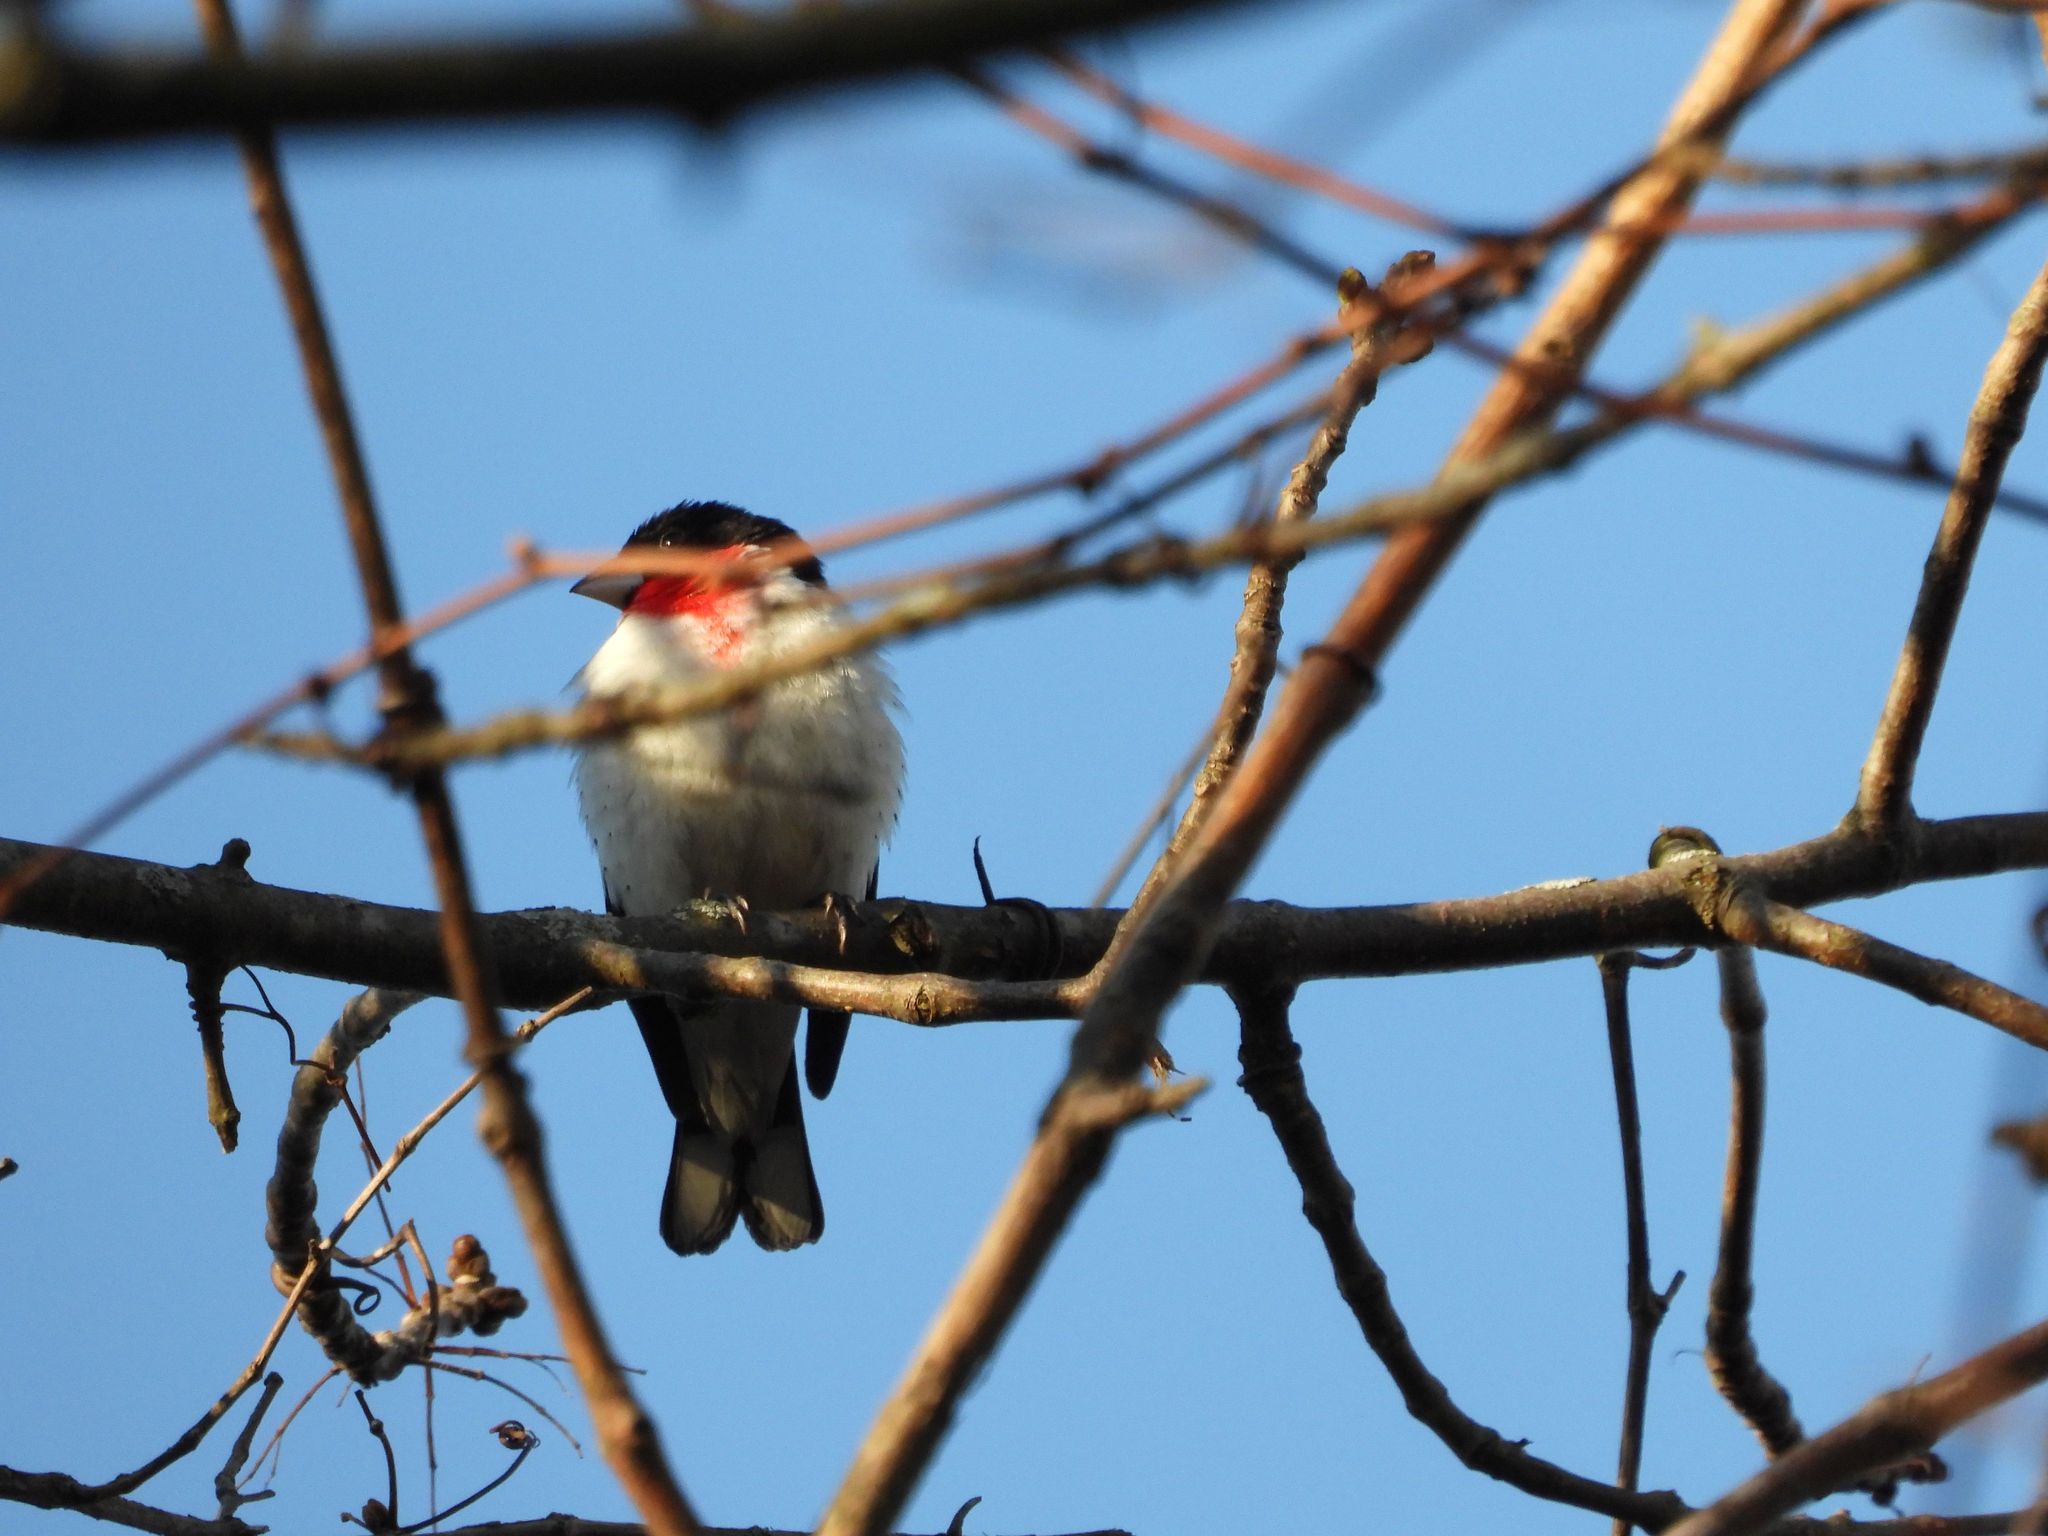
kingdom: Animalia
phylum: Chordata
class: Aves
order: Passeriformes
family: Cardinalidae
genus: Pheucticus
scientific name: Pheucticus ludovicianus
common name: Rose-breasted grosbeak
